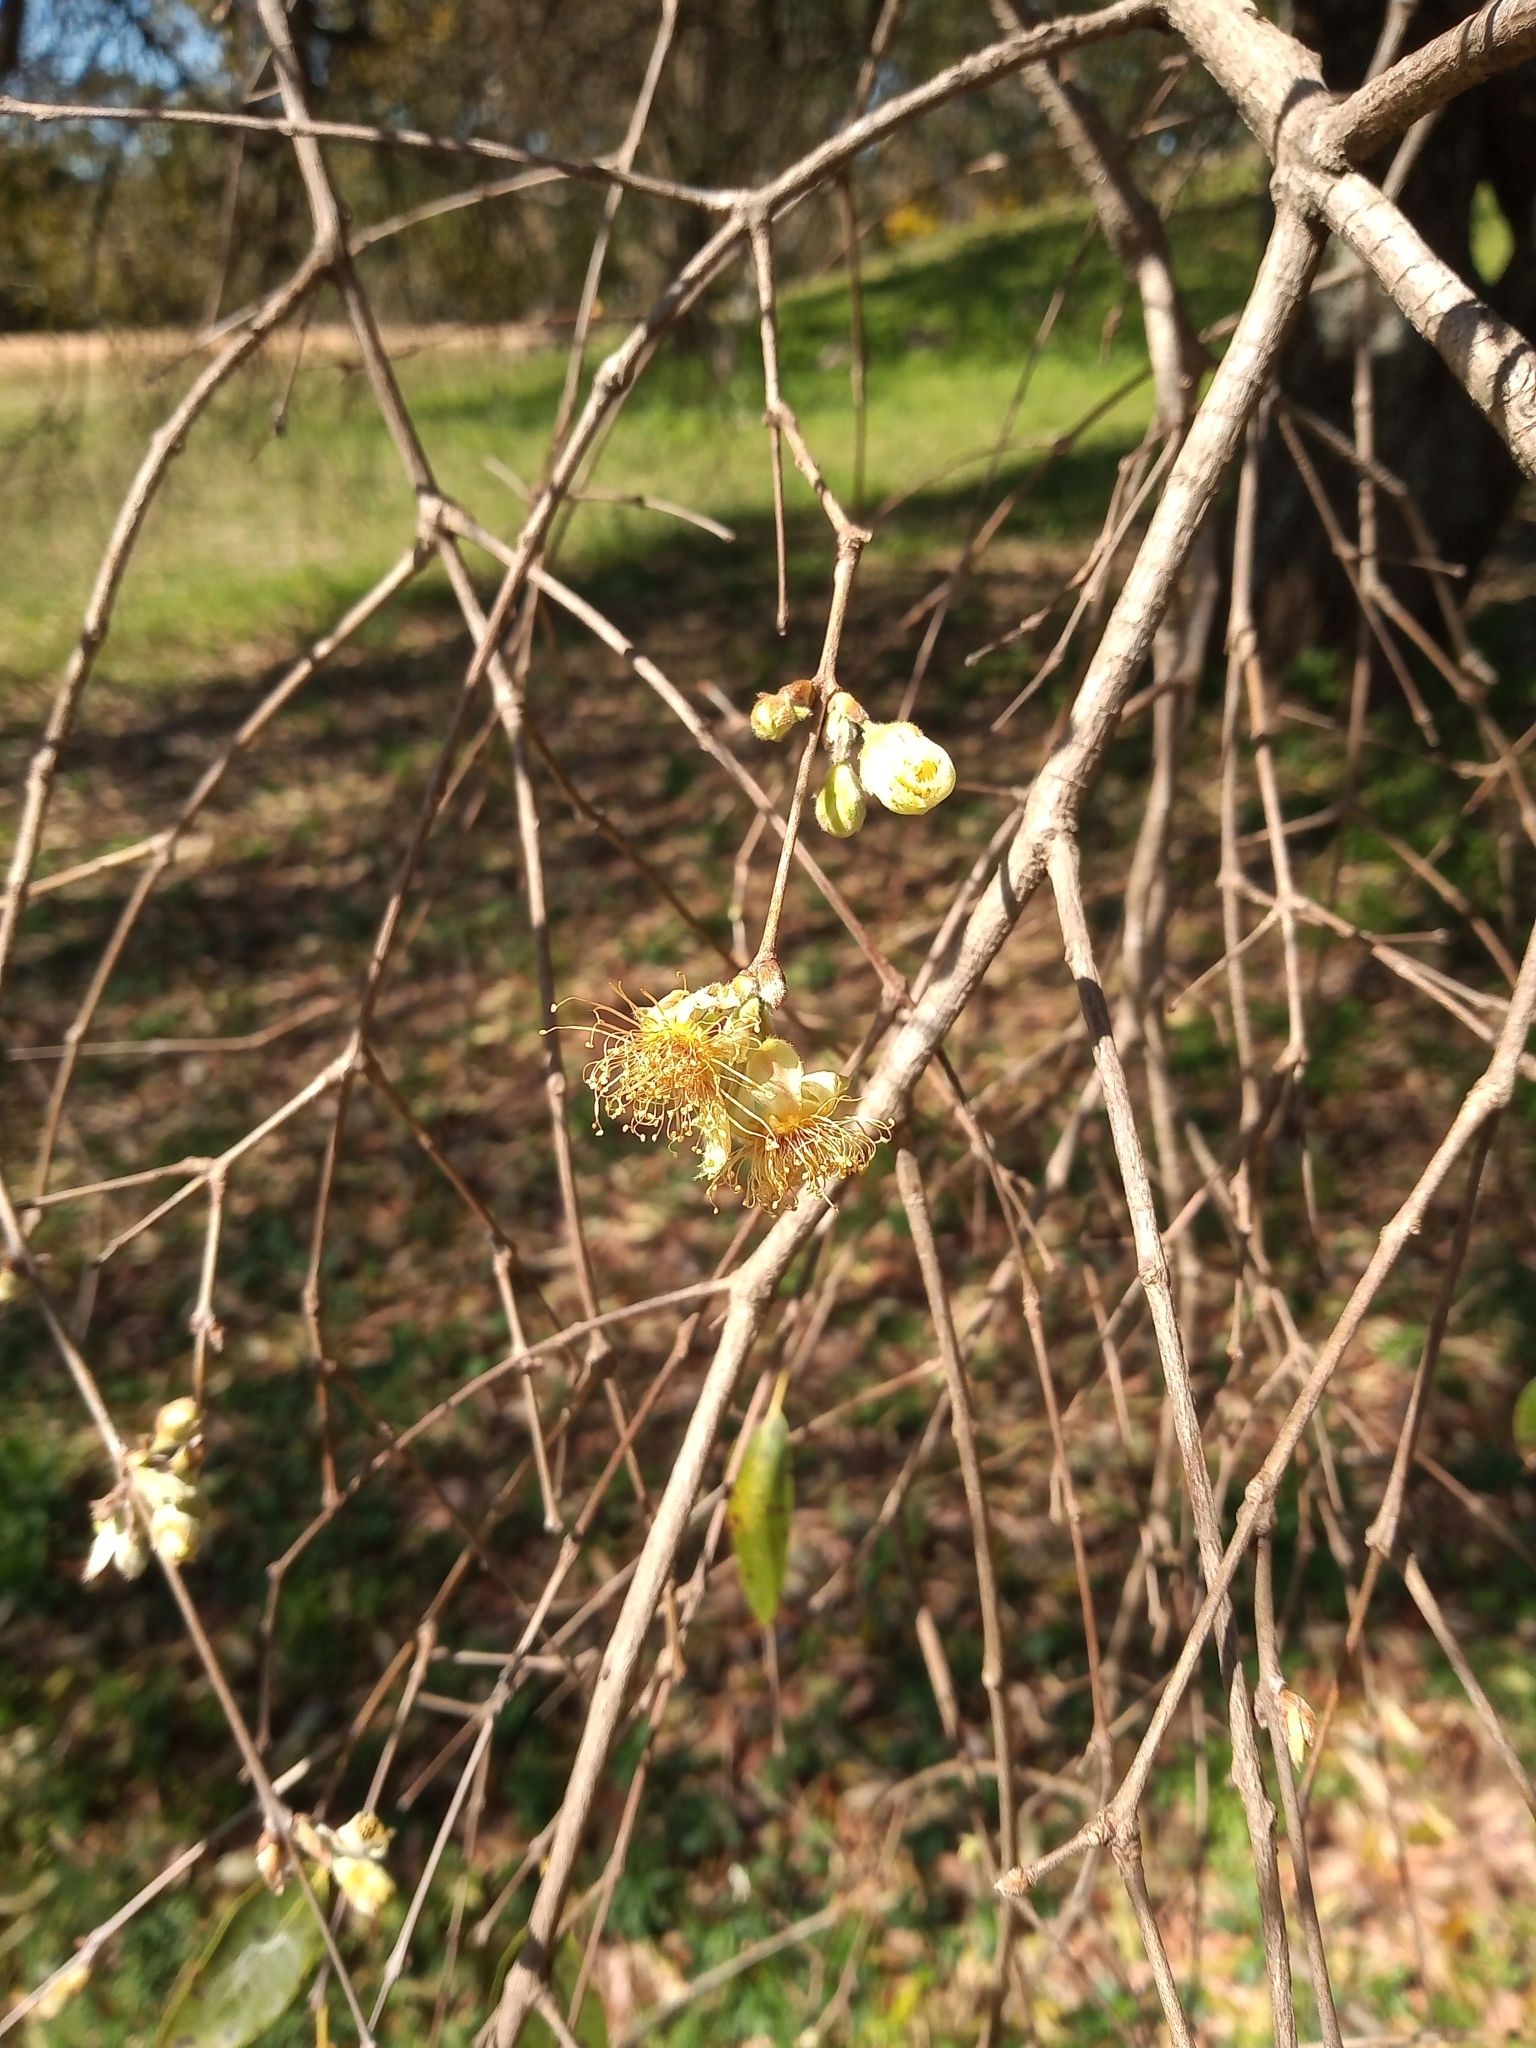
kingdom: Plantae
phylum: Tracheophyta
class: Magnoliopsida
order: Myrtales
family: Myrtaceae
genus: Eugenia
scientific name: Eugenia myrcianthes
